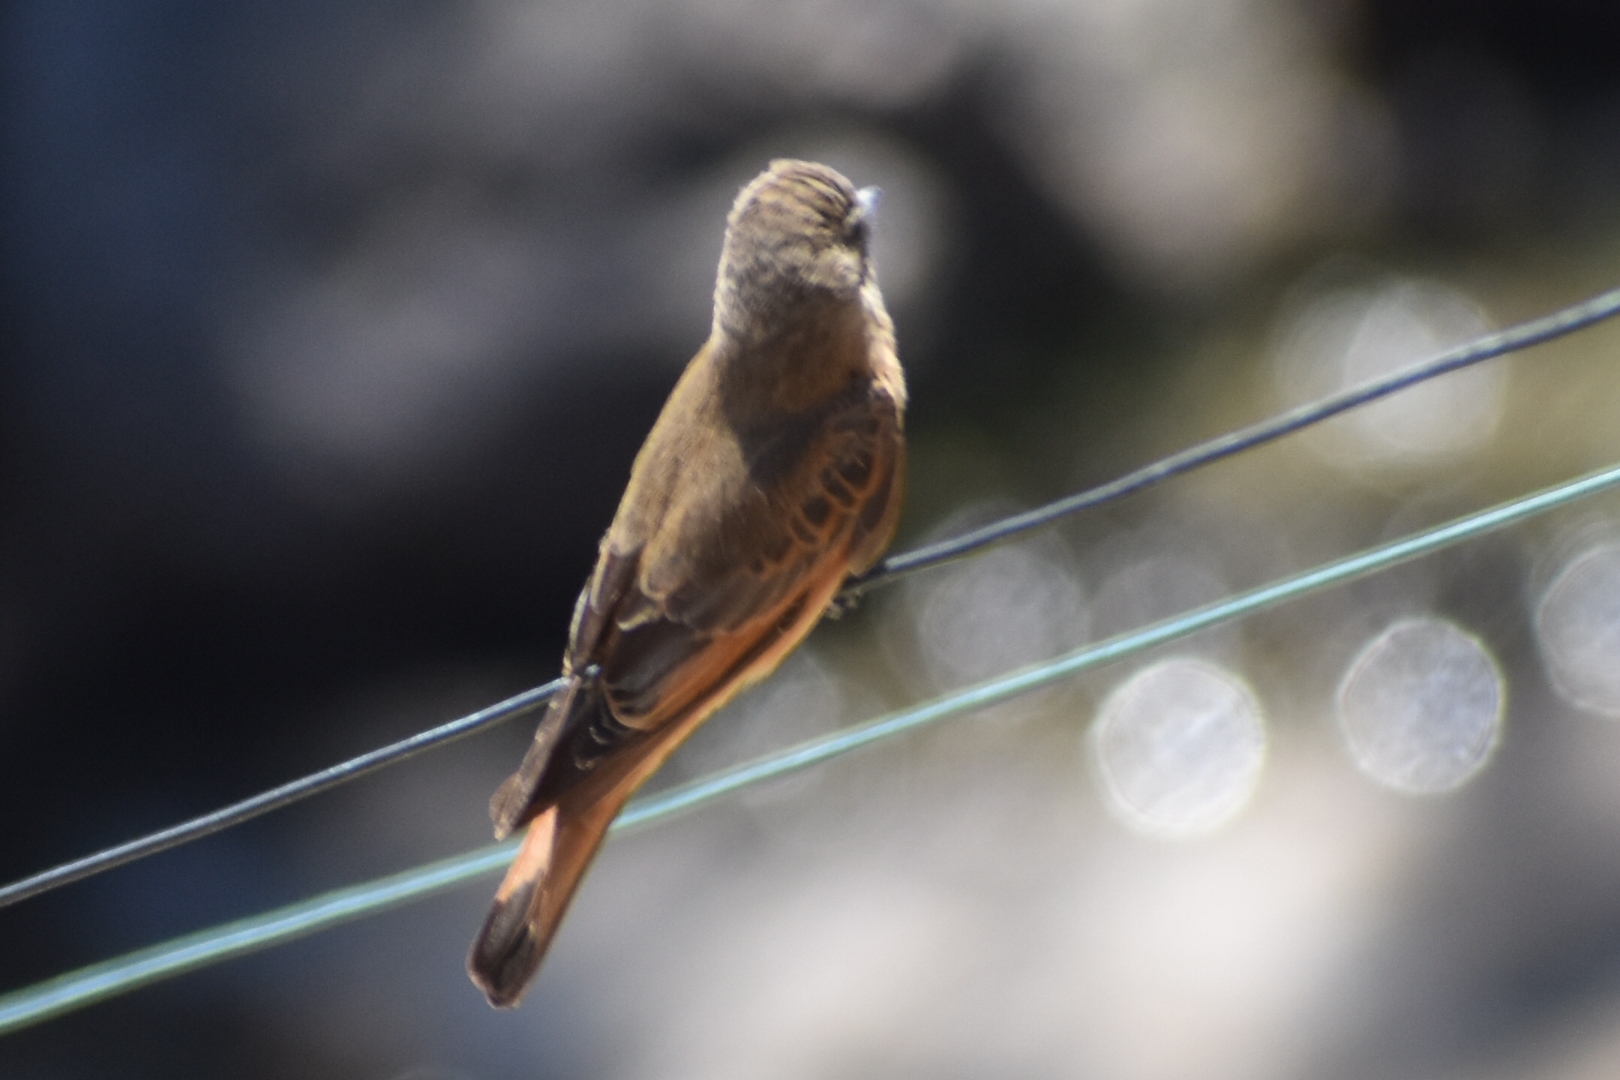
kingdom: Animalia
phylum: Chordata
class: Aves
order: Passeriformes
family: Tyrannidae
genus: Hirundinea
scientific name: Hirundinea ferruginea
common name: Cliff flycatcher
